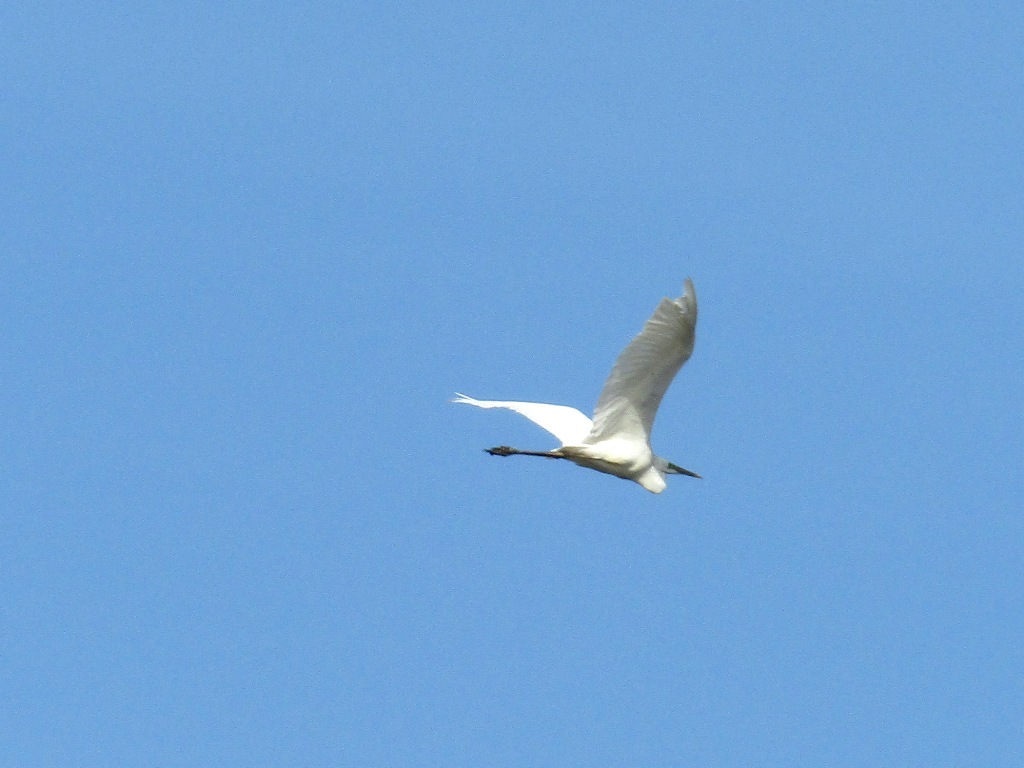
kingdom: Animalia
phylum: Chordata
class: Aves
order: Pelecaniformes
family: Ardeidae
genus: Ardea
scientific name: Ardea alba
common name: Great egret
